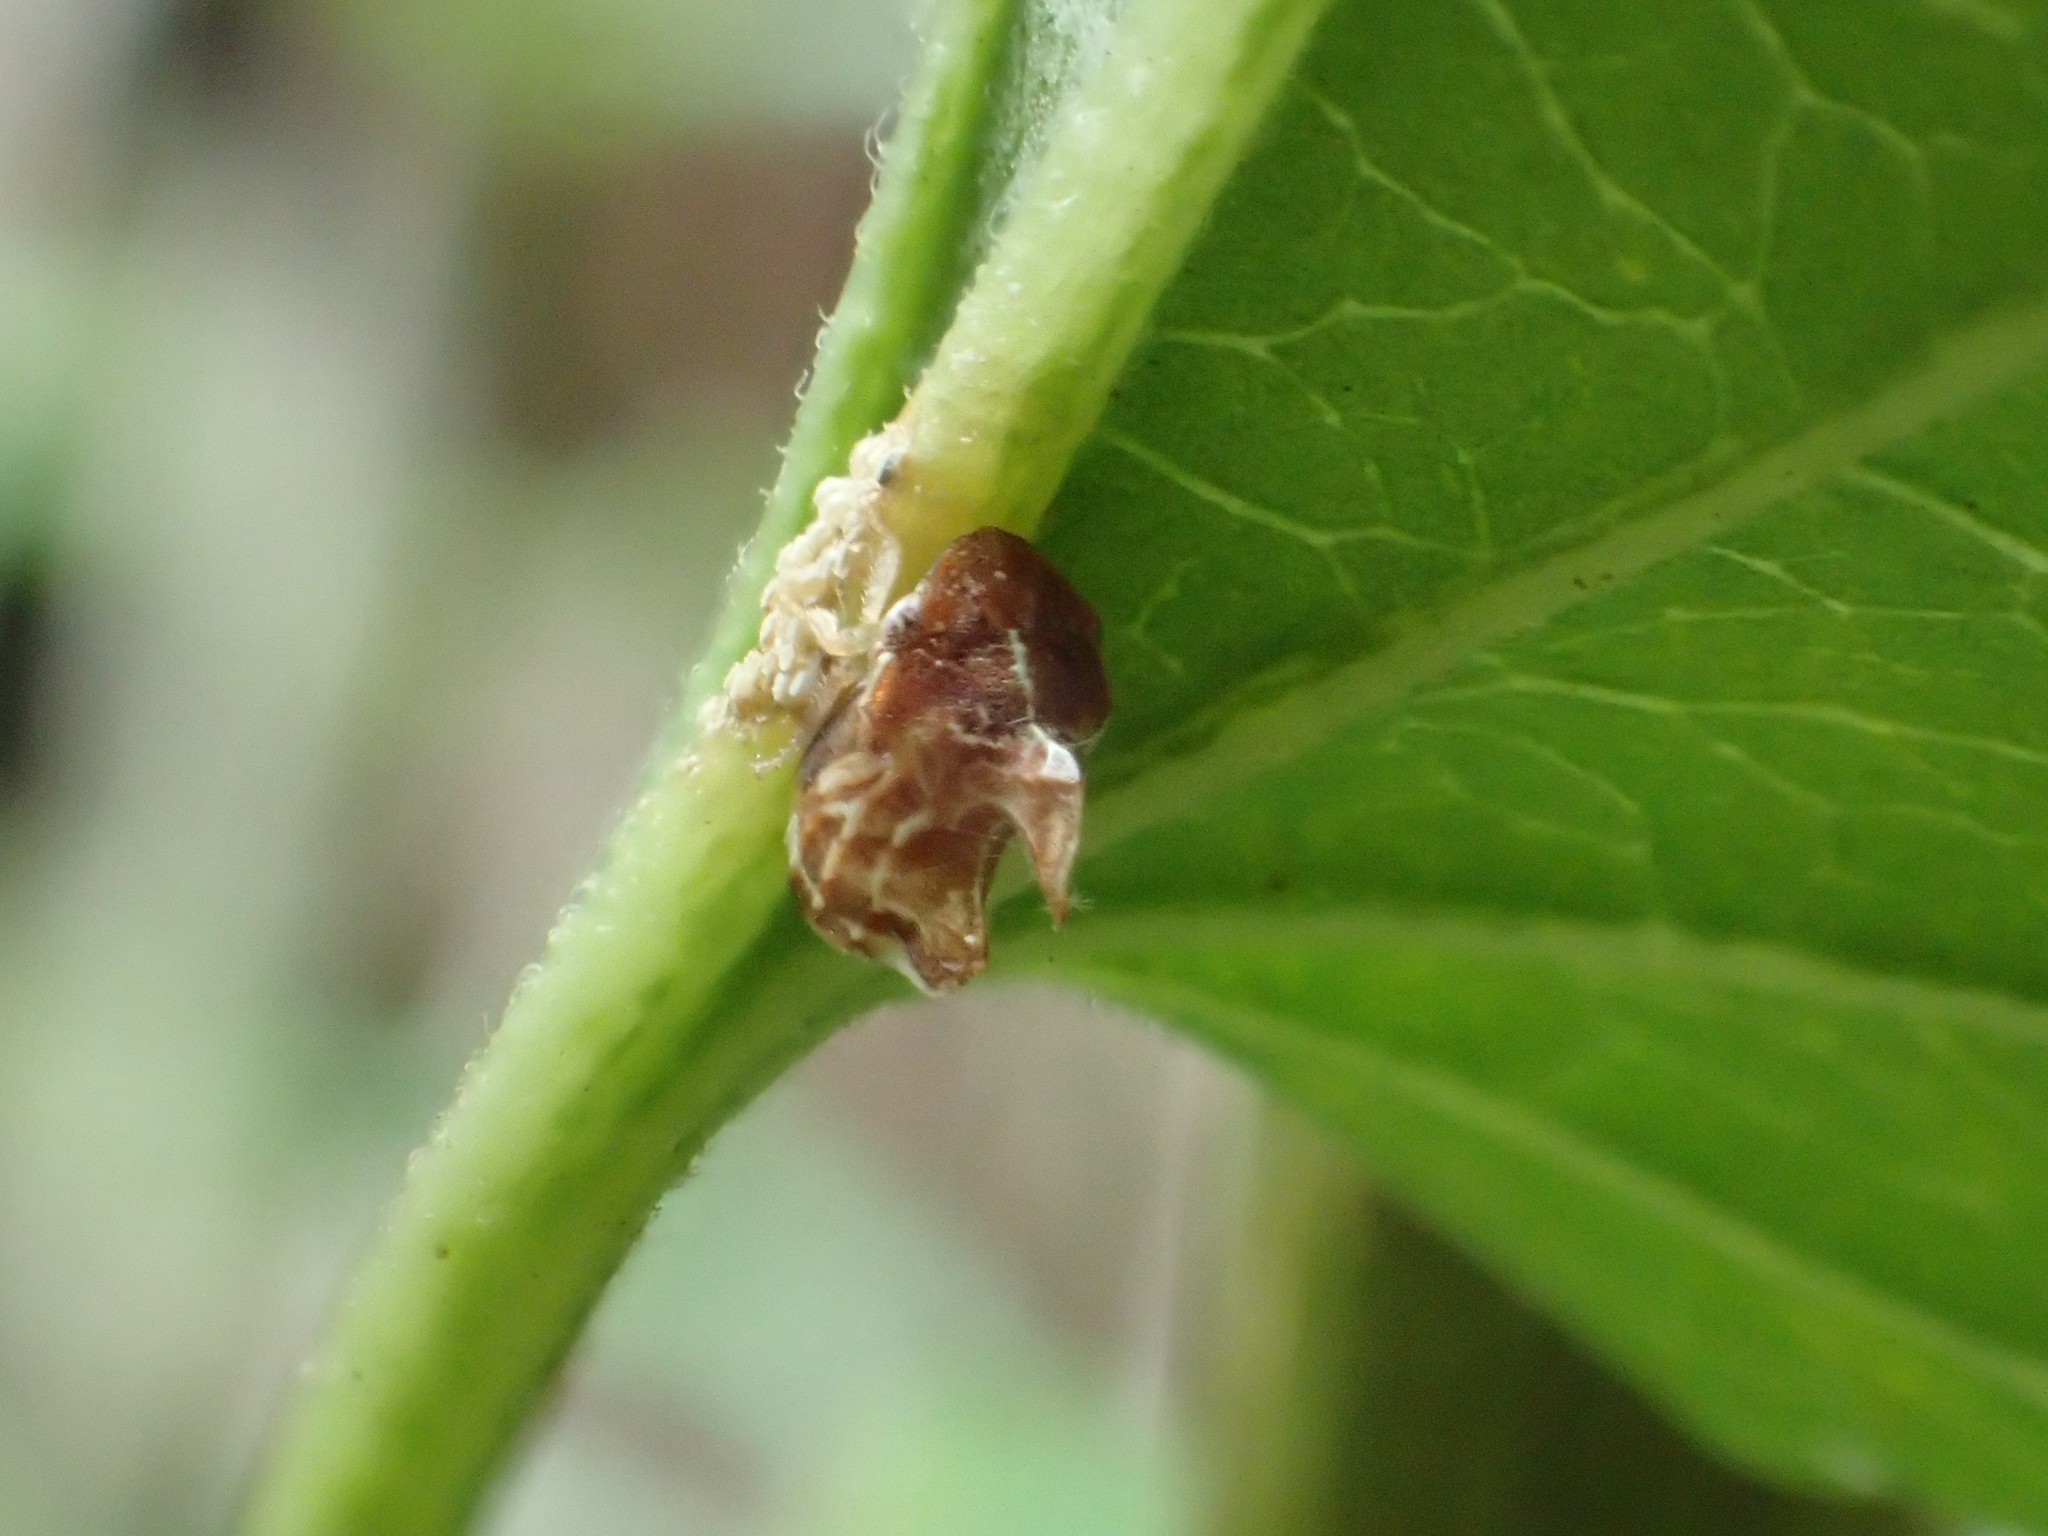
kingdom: Animalia
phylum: Arthropoda
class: Insecta
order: Hemiptera
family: Membracidae
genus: Entylia
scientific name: Entylia carinata
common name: Keeled treehopper
